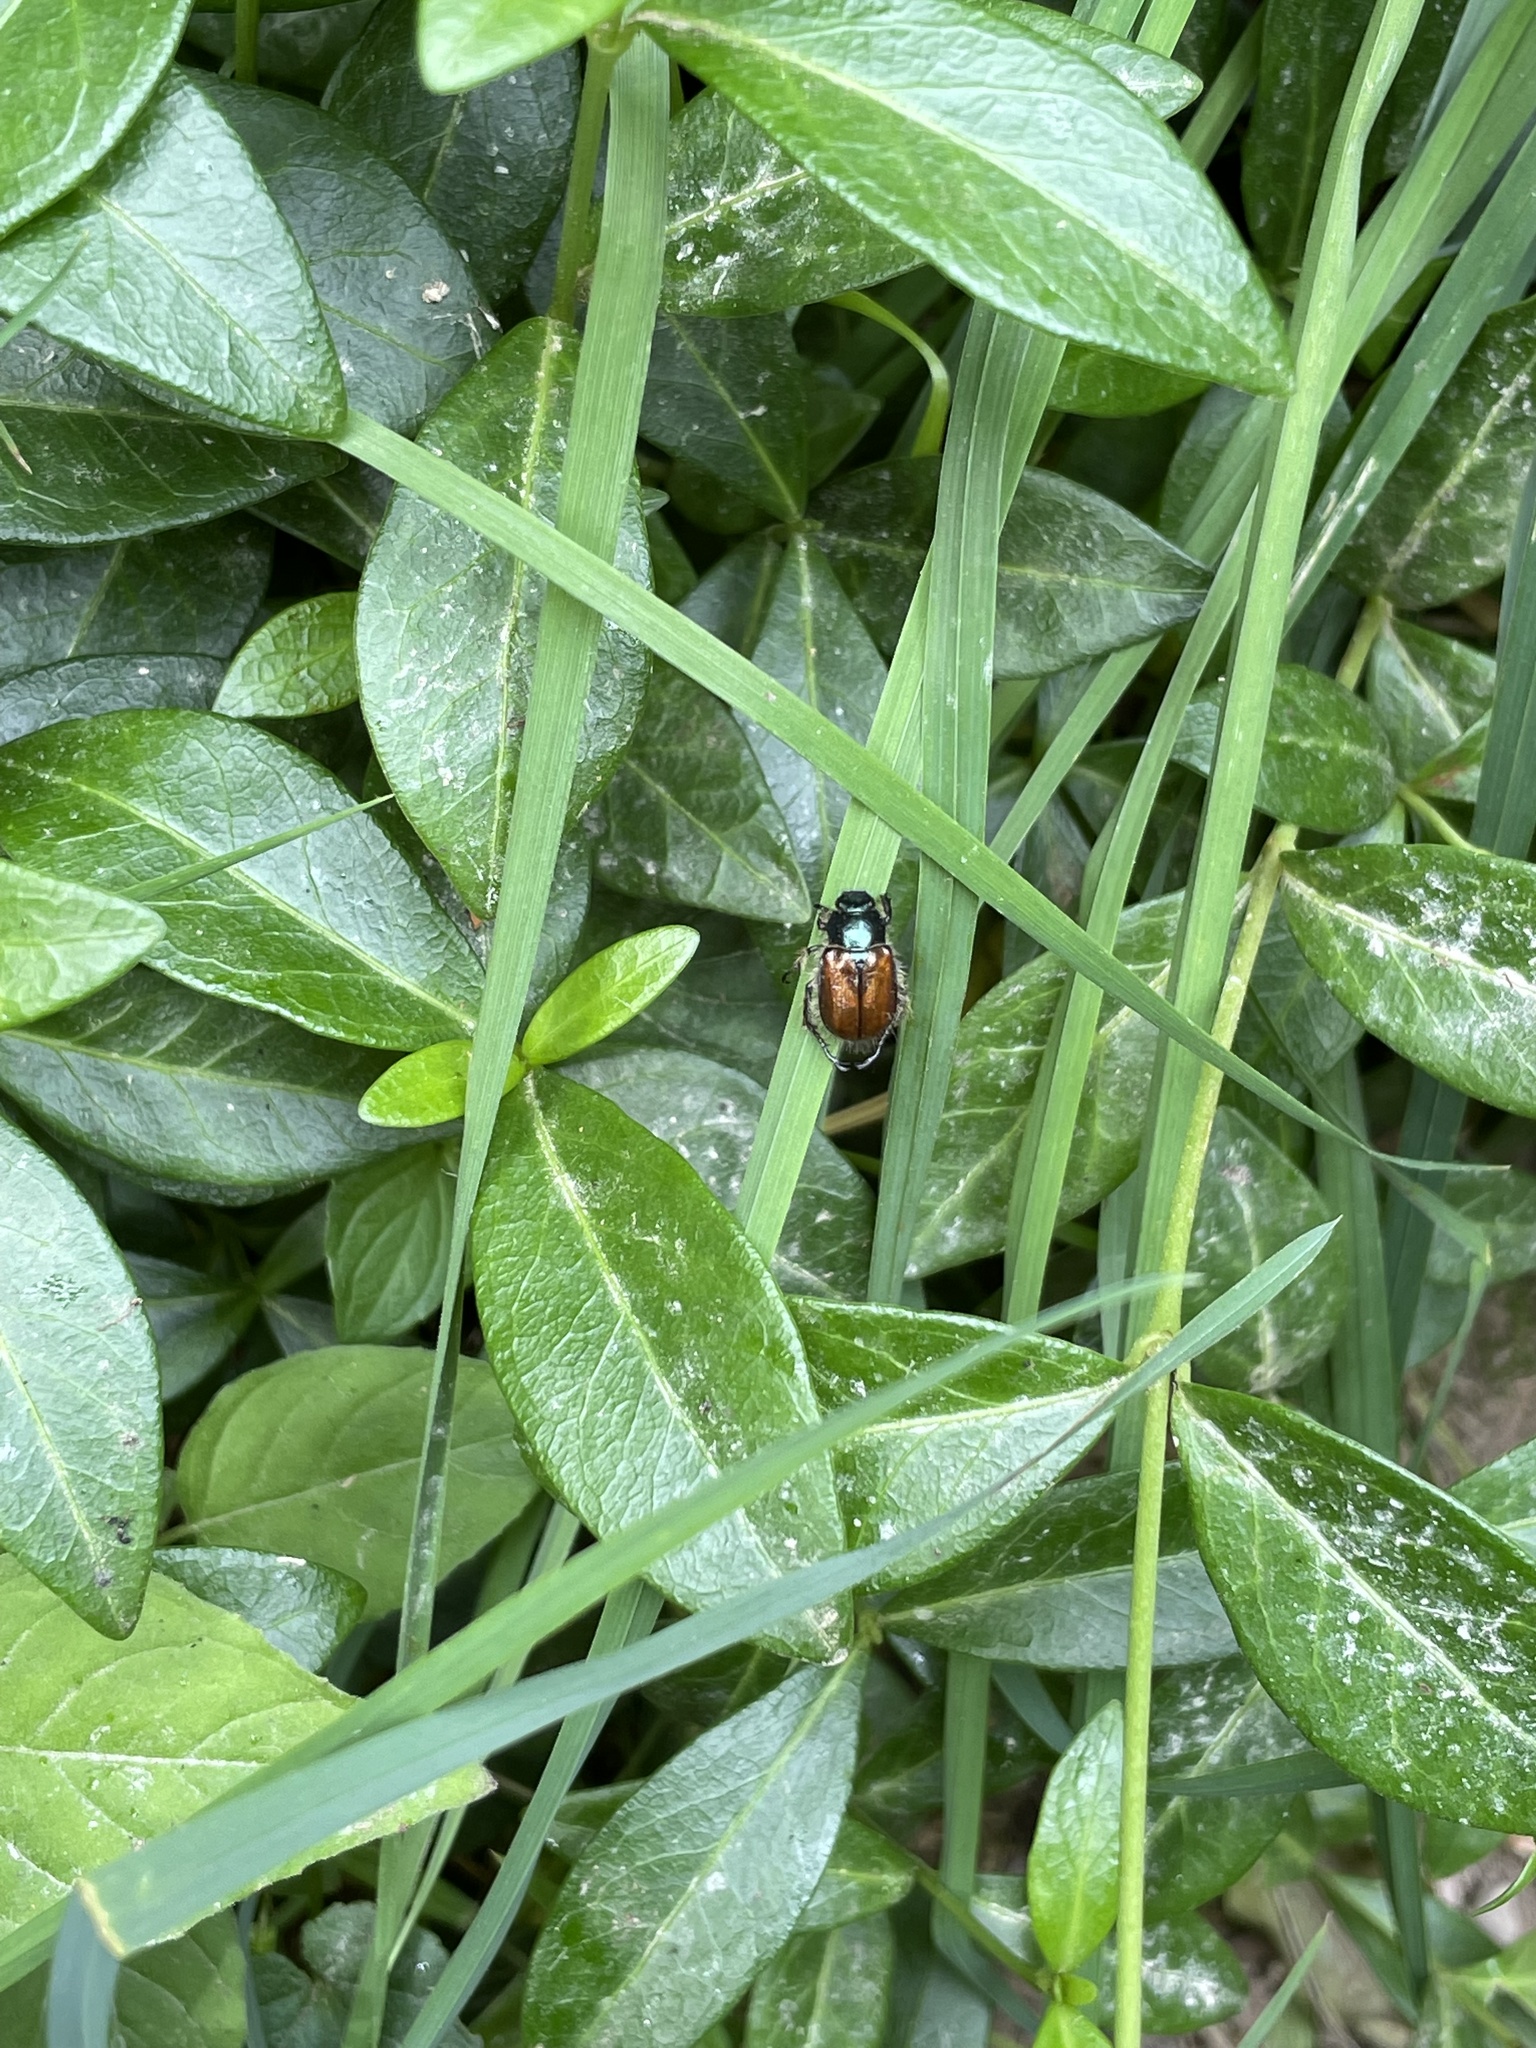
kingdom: Animalia
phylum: Arthropoda
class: Insecta
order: Coleoptera
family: Scarabaeidae
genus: Phyllopertha
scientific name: Phyllopertha horticola
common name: Garden chafer
